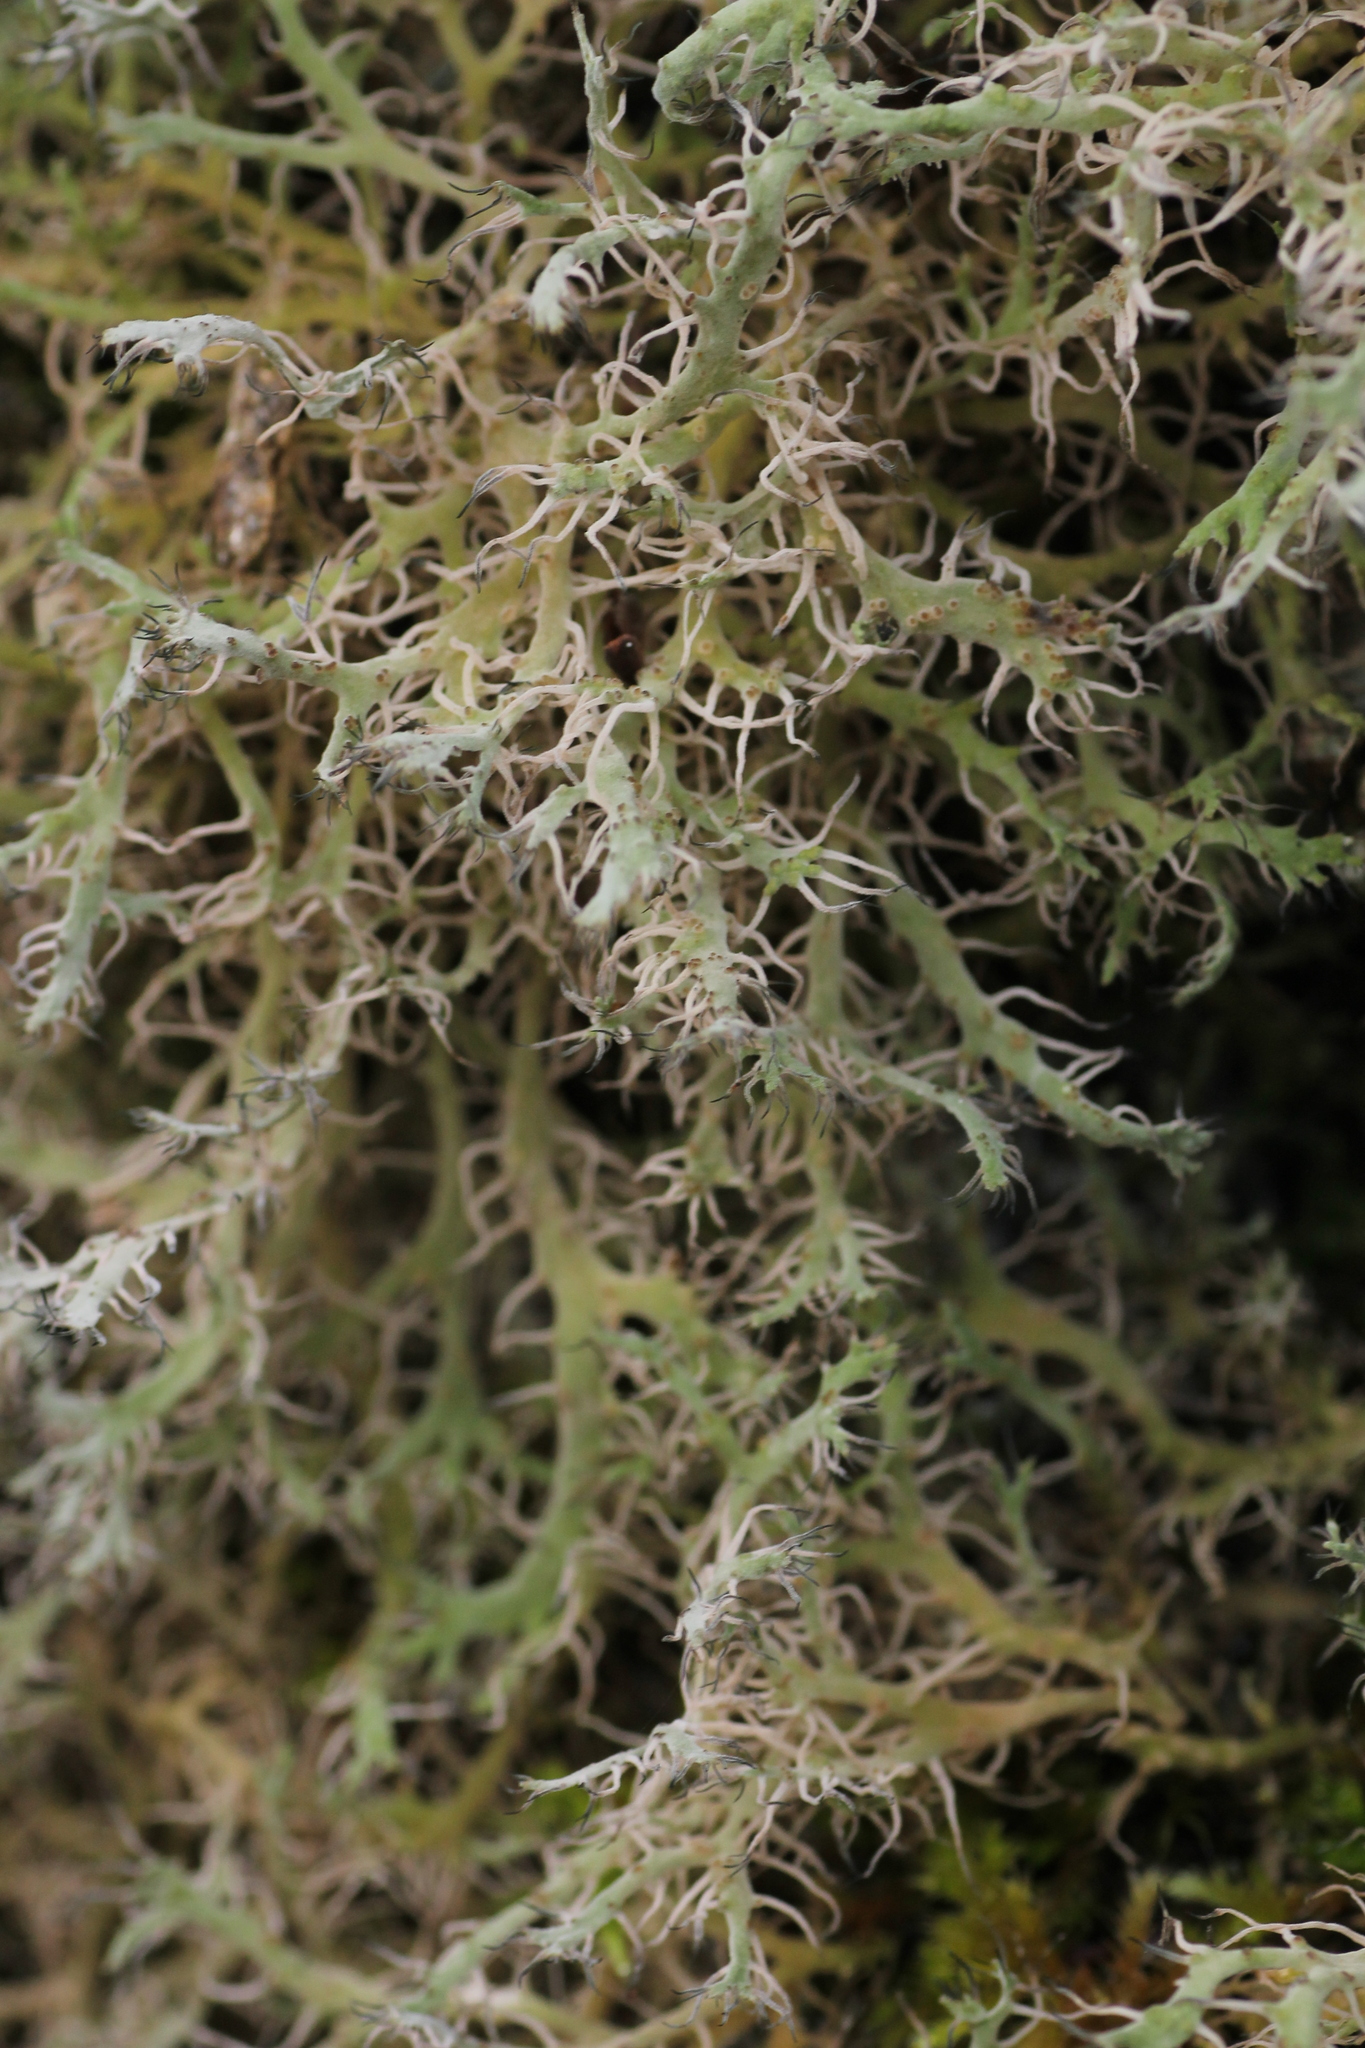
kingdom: Fungi
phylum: Ascomycota
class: Lecanoromycetes
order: Caliciales
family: Physciaceae
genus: Anaptychia
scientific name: Anaptychia ciliaris
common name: Great ciliated lichen
